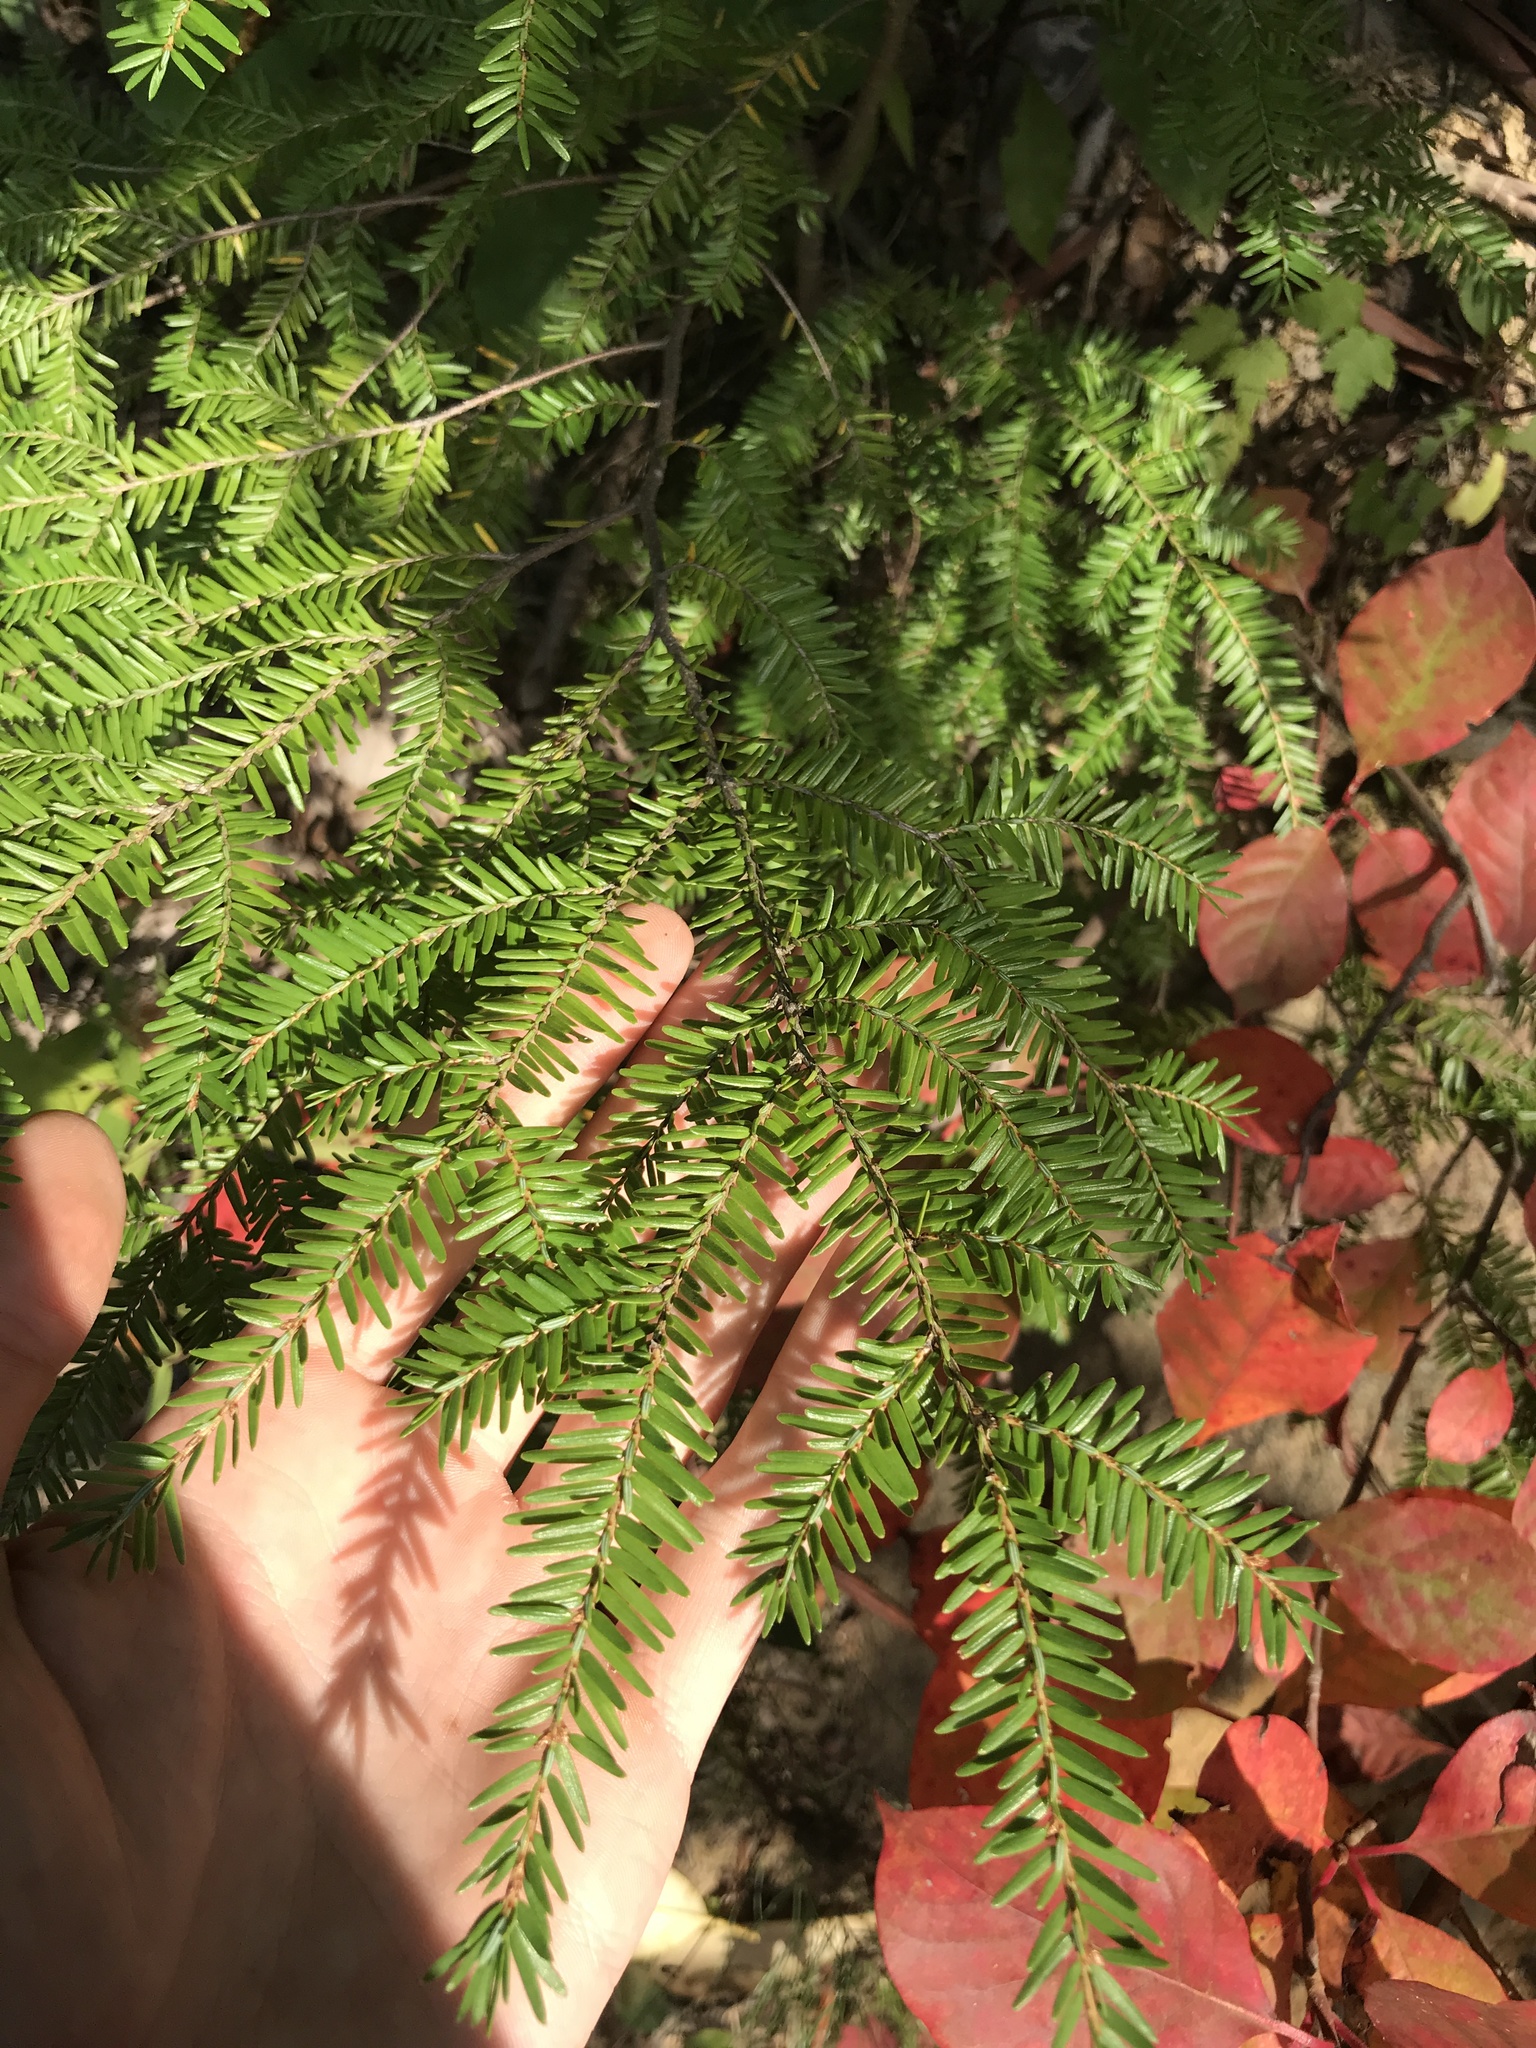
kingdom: Plantae
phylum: Tracheophyta
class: Pinopsida
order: Pinales
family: Pinaceae
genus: Tsuga
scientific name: Tsuga canadensis
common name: Eastern hemlock
